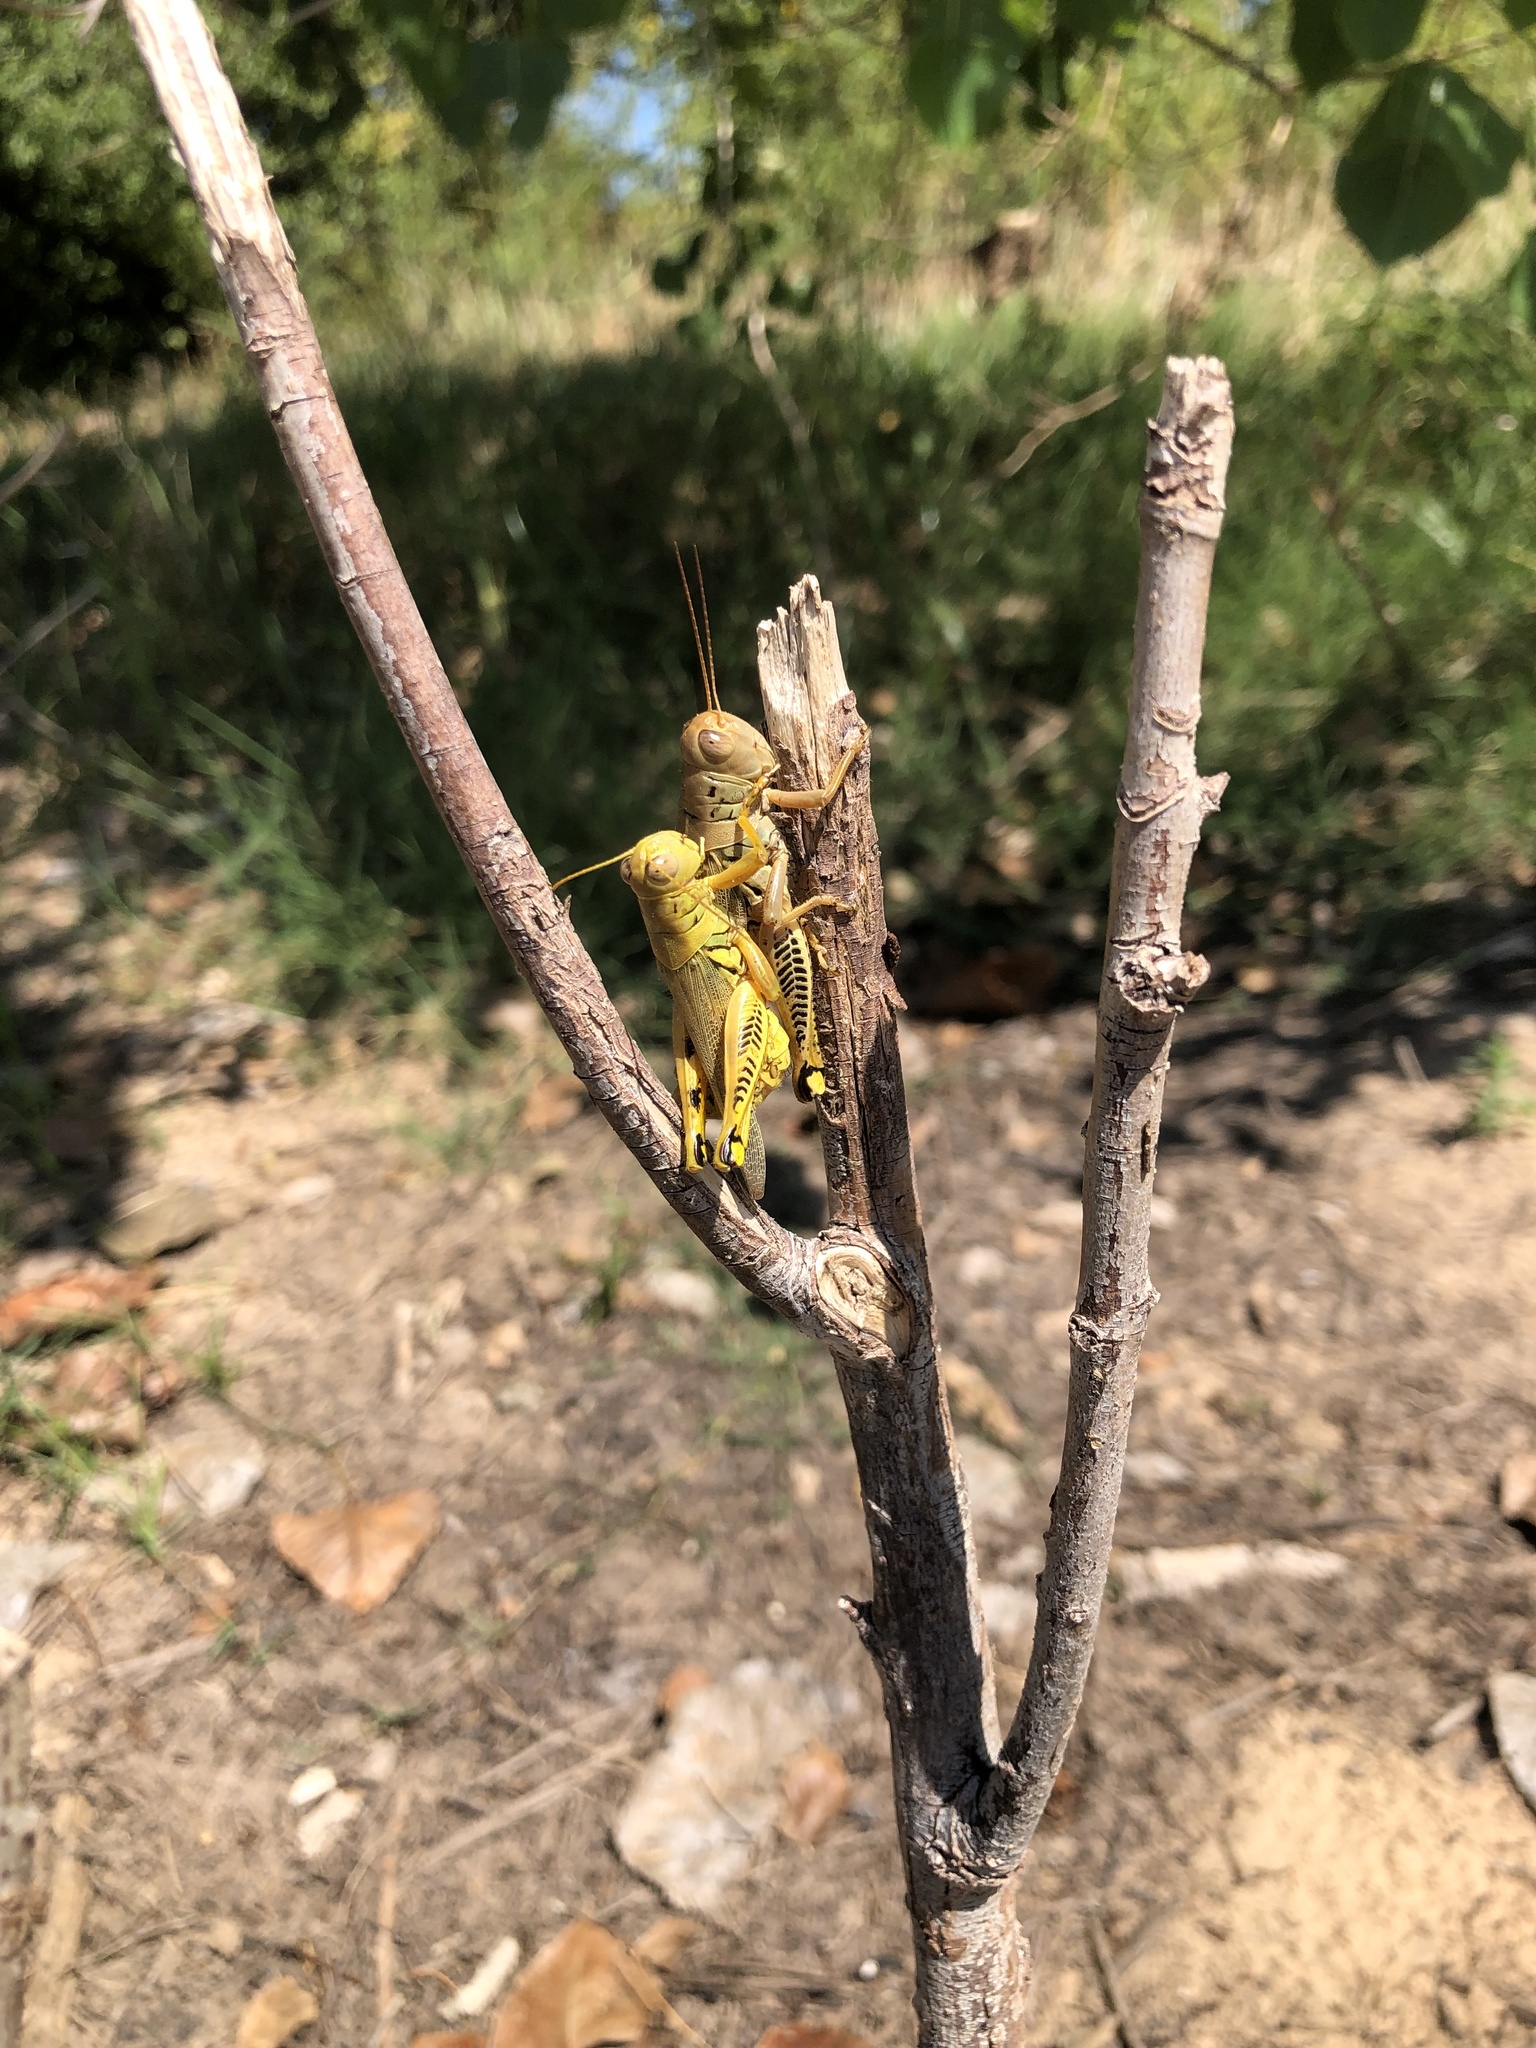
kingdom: Animalia
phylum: Arthropoda
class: Insecta
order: Orthoptera
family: Acrididae
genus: Melanoplus
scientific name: Melanoplus differentialis
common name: Differential grasshopper
